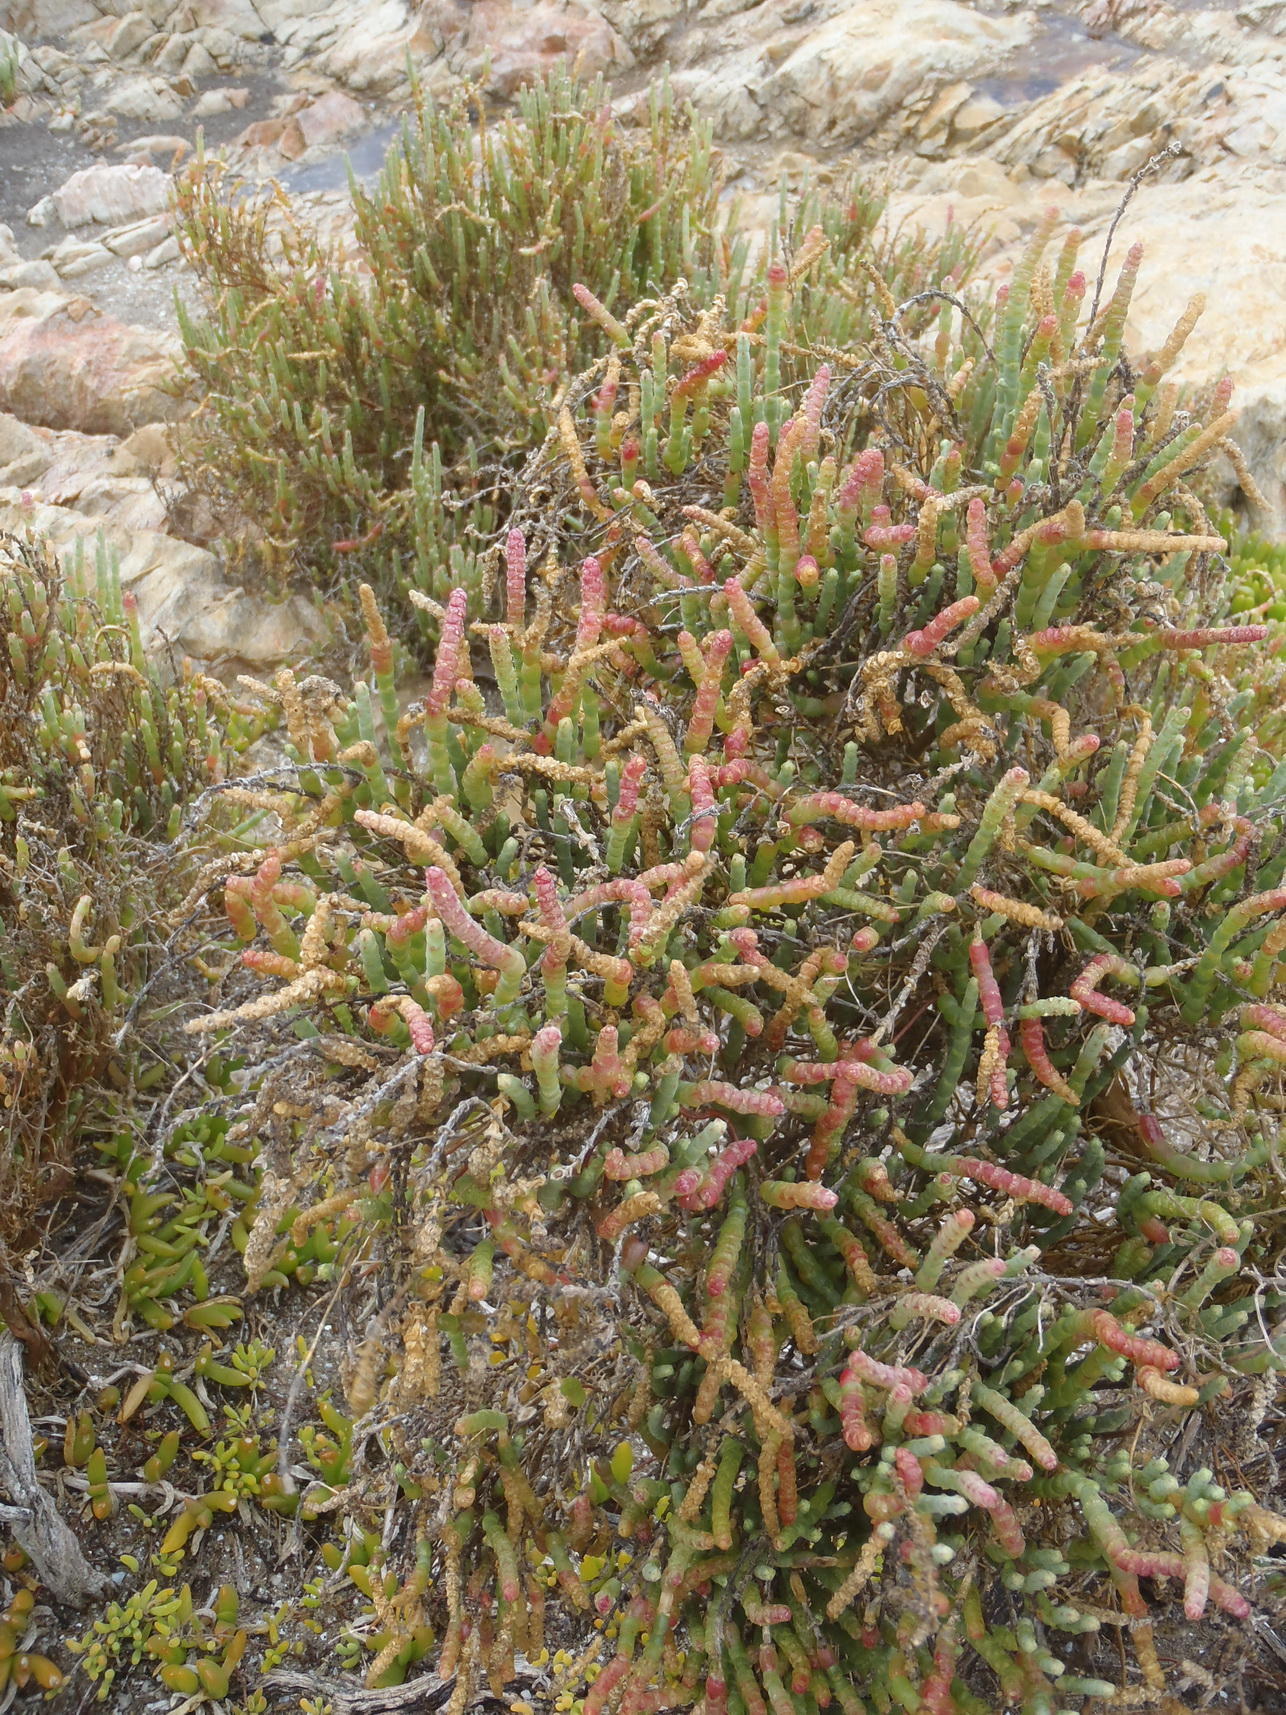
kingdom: Plantae
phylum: Tracheophyta
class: Magnoliopsida
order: Caryophyllales
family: Amaranthaceae
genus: Salicornia
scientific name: Salicornia littorea
